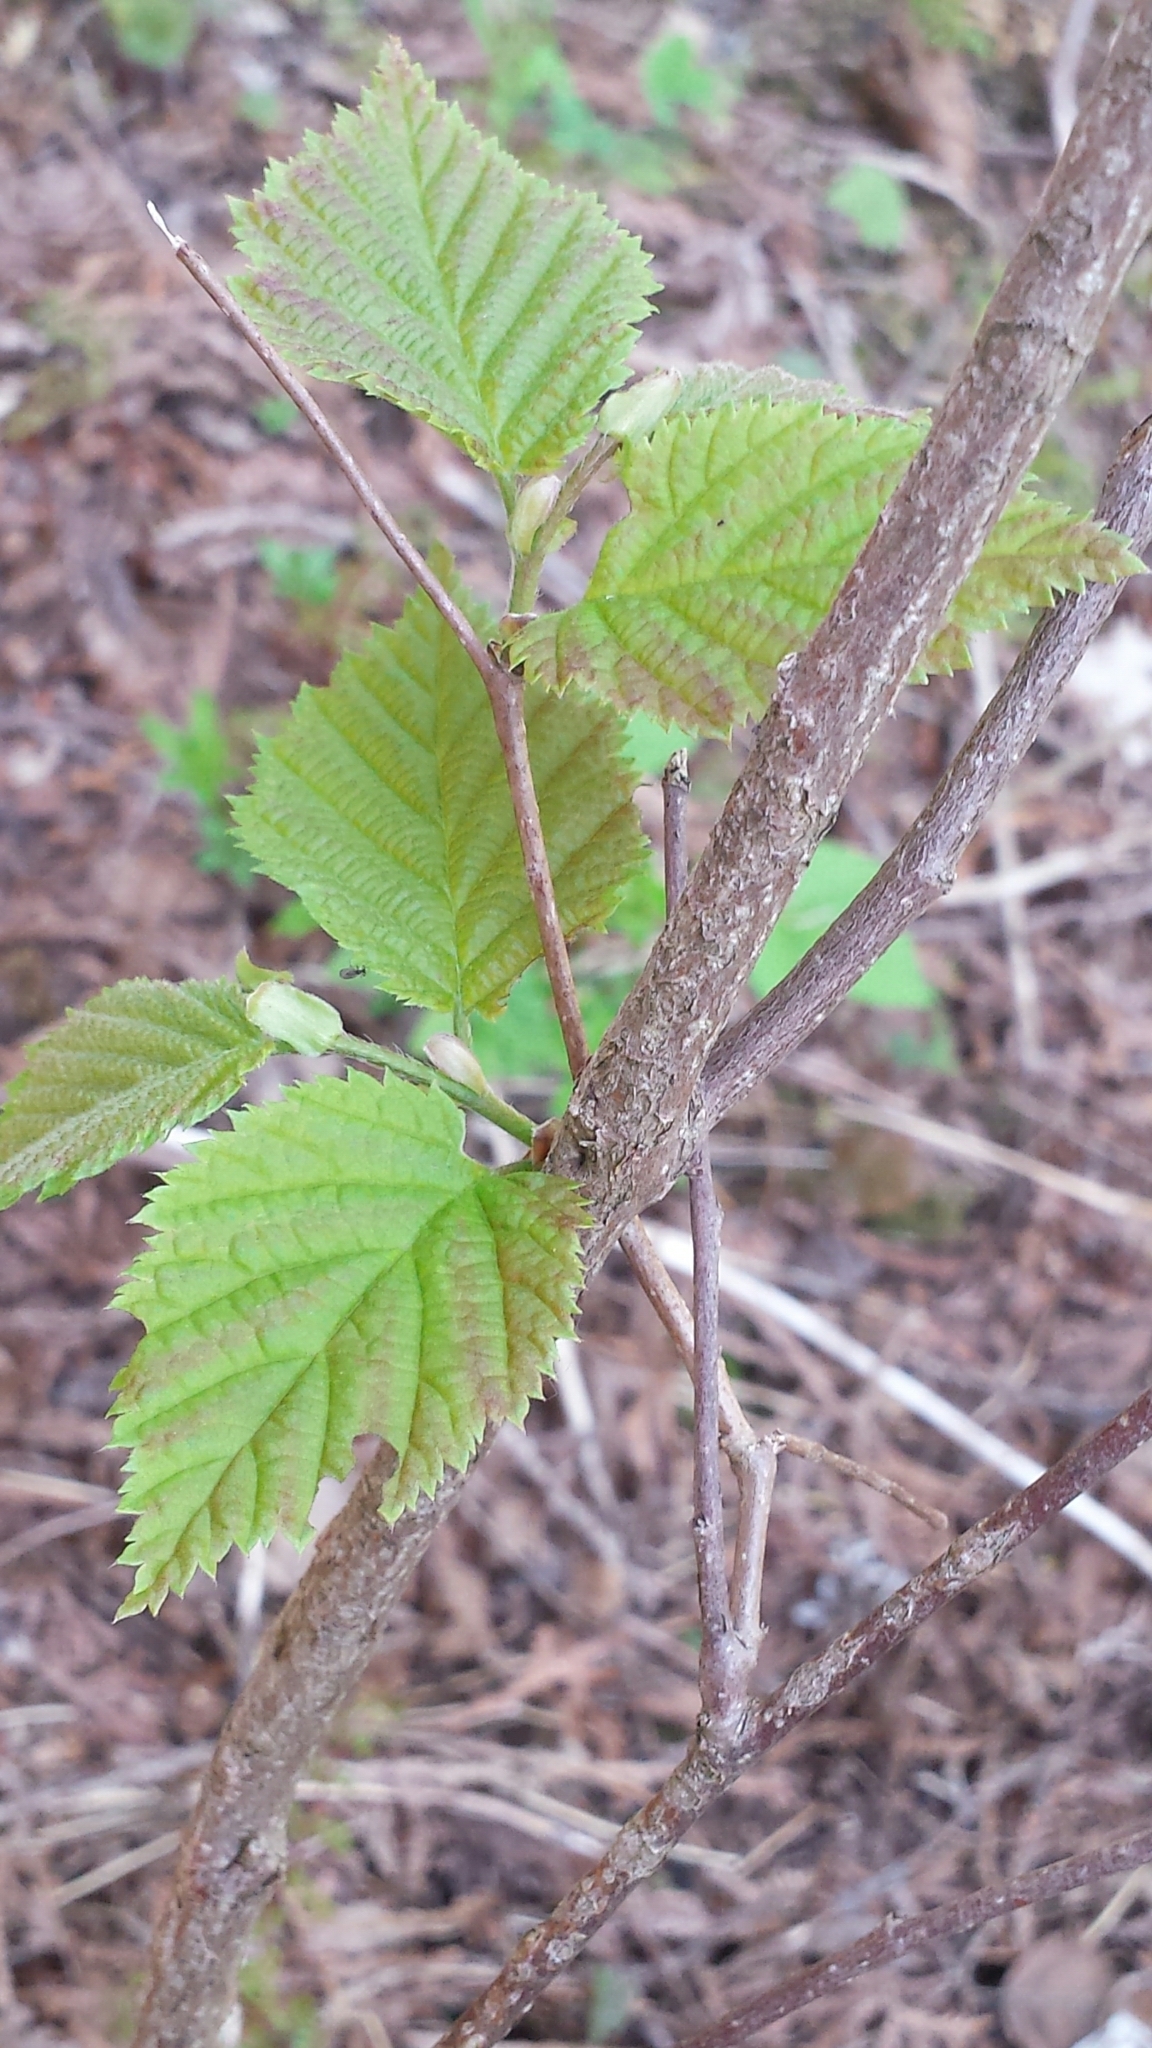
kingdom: Plantae
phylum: Tracheophyta
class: Magnoliopsida
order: Fagales
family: Betulaceae
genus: Corylus
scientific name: Corylus cornuta
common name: Beaked hazel
